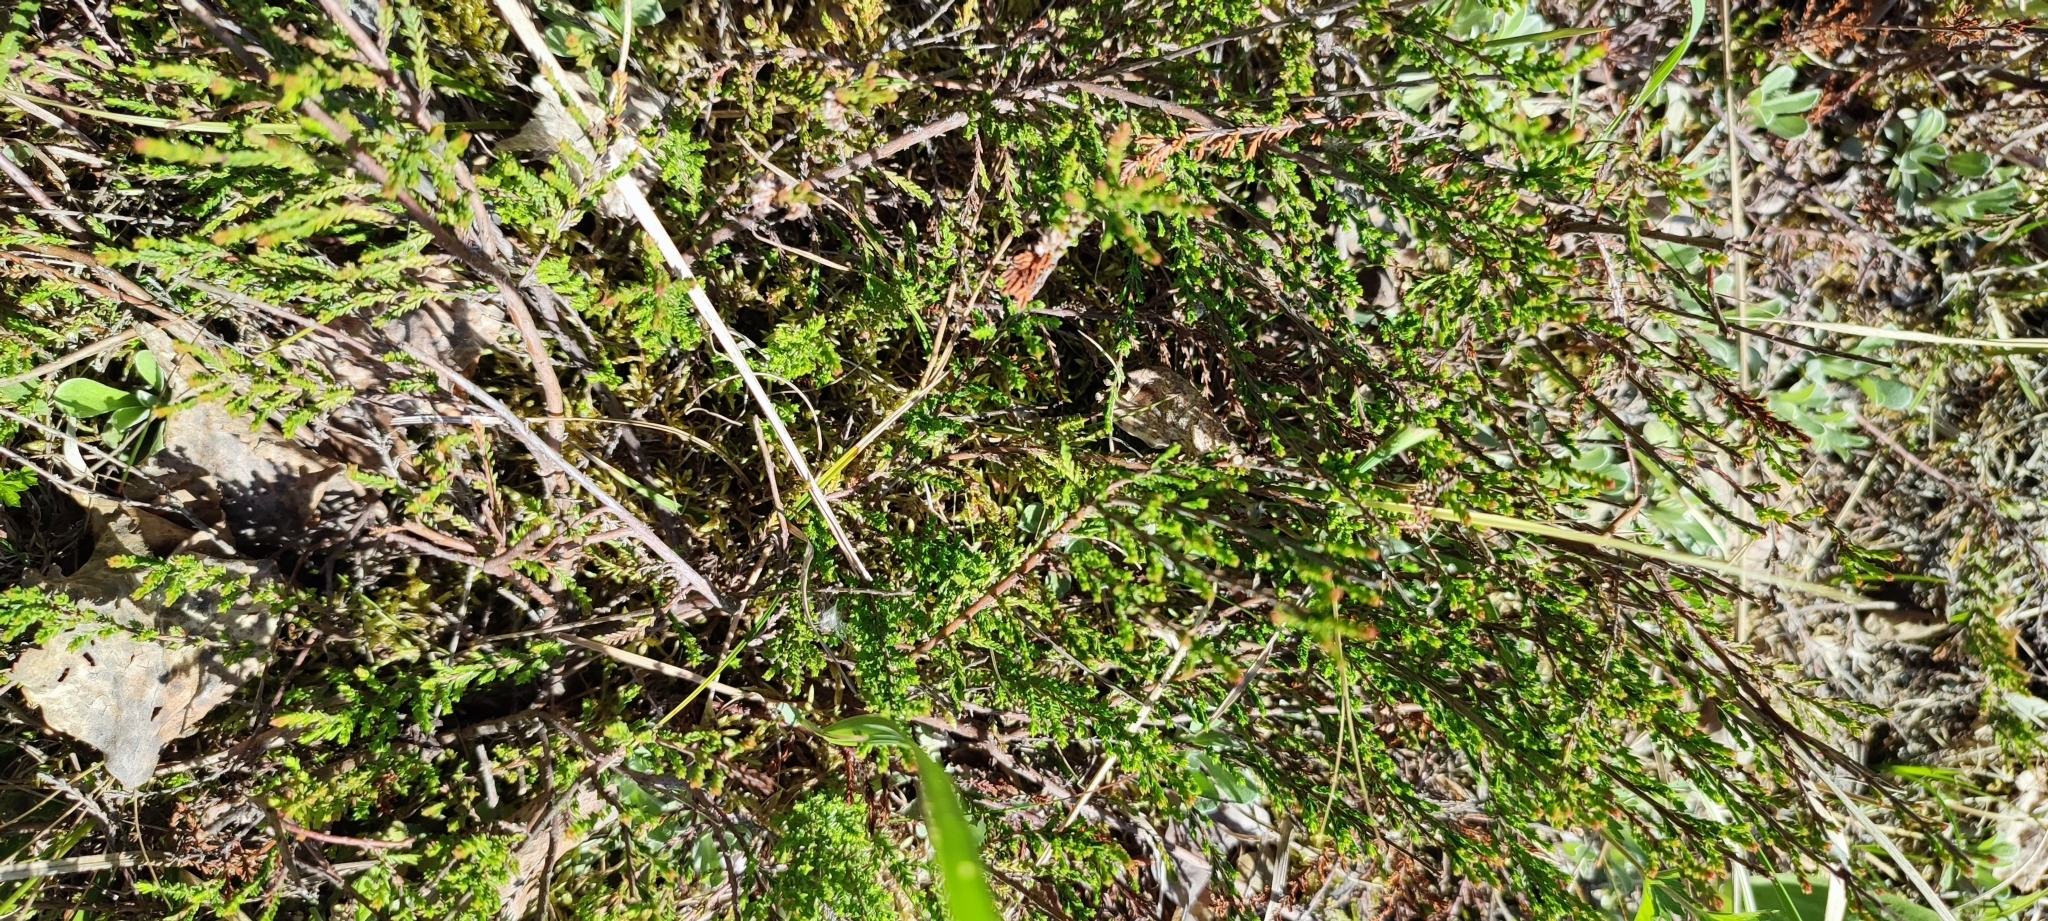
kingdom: Plantae
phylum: Tracheophyta
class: Magnoliopsida
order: Ericales
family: Ericaceae
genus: Calluna
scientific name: Calluna vulgaris
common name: Heather
